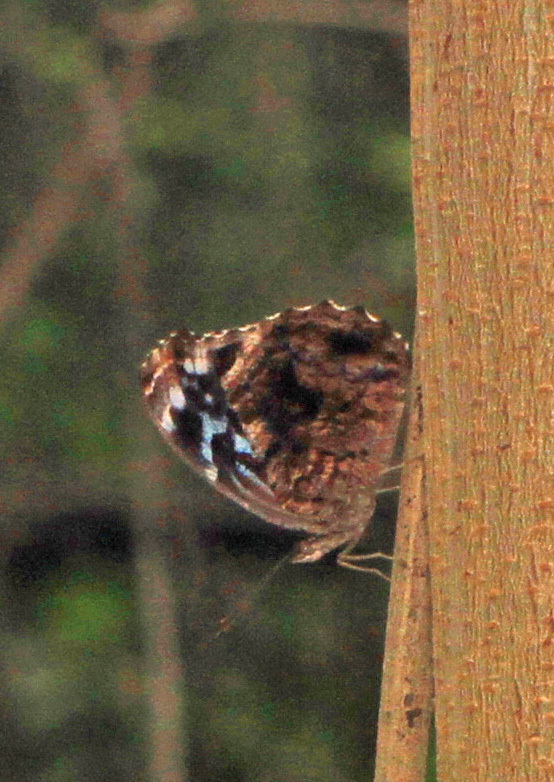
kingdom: Animalia
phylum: Arthropoda
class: Insecta
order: Lepidoptera
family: Nymphalidae
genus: Myscelia
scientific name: Myscelia ethusa
